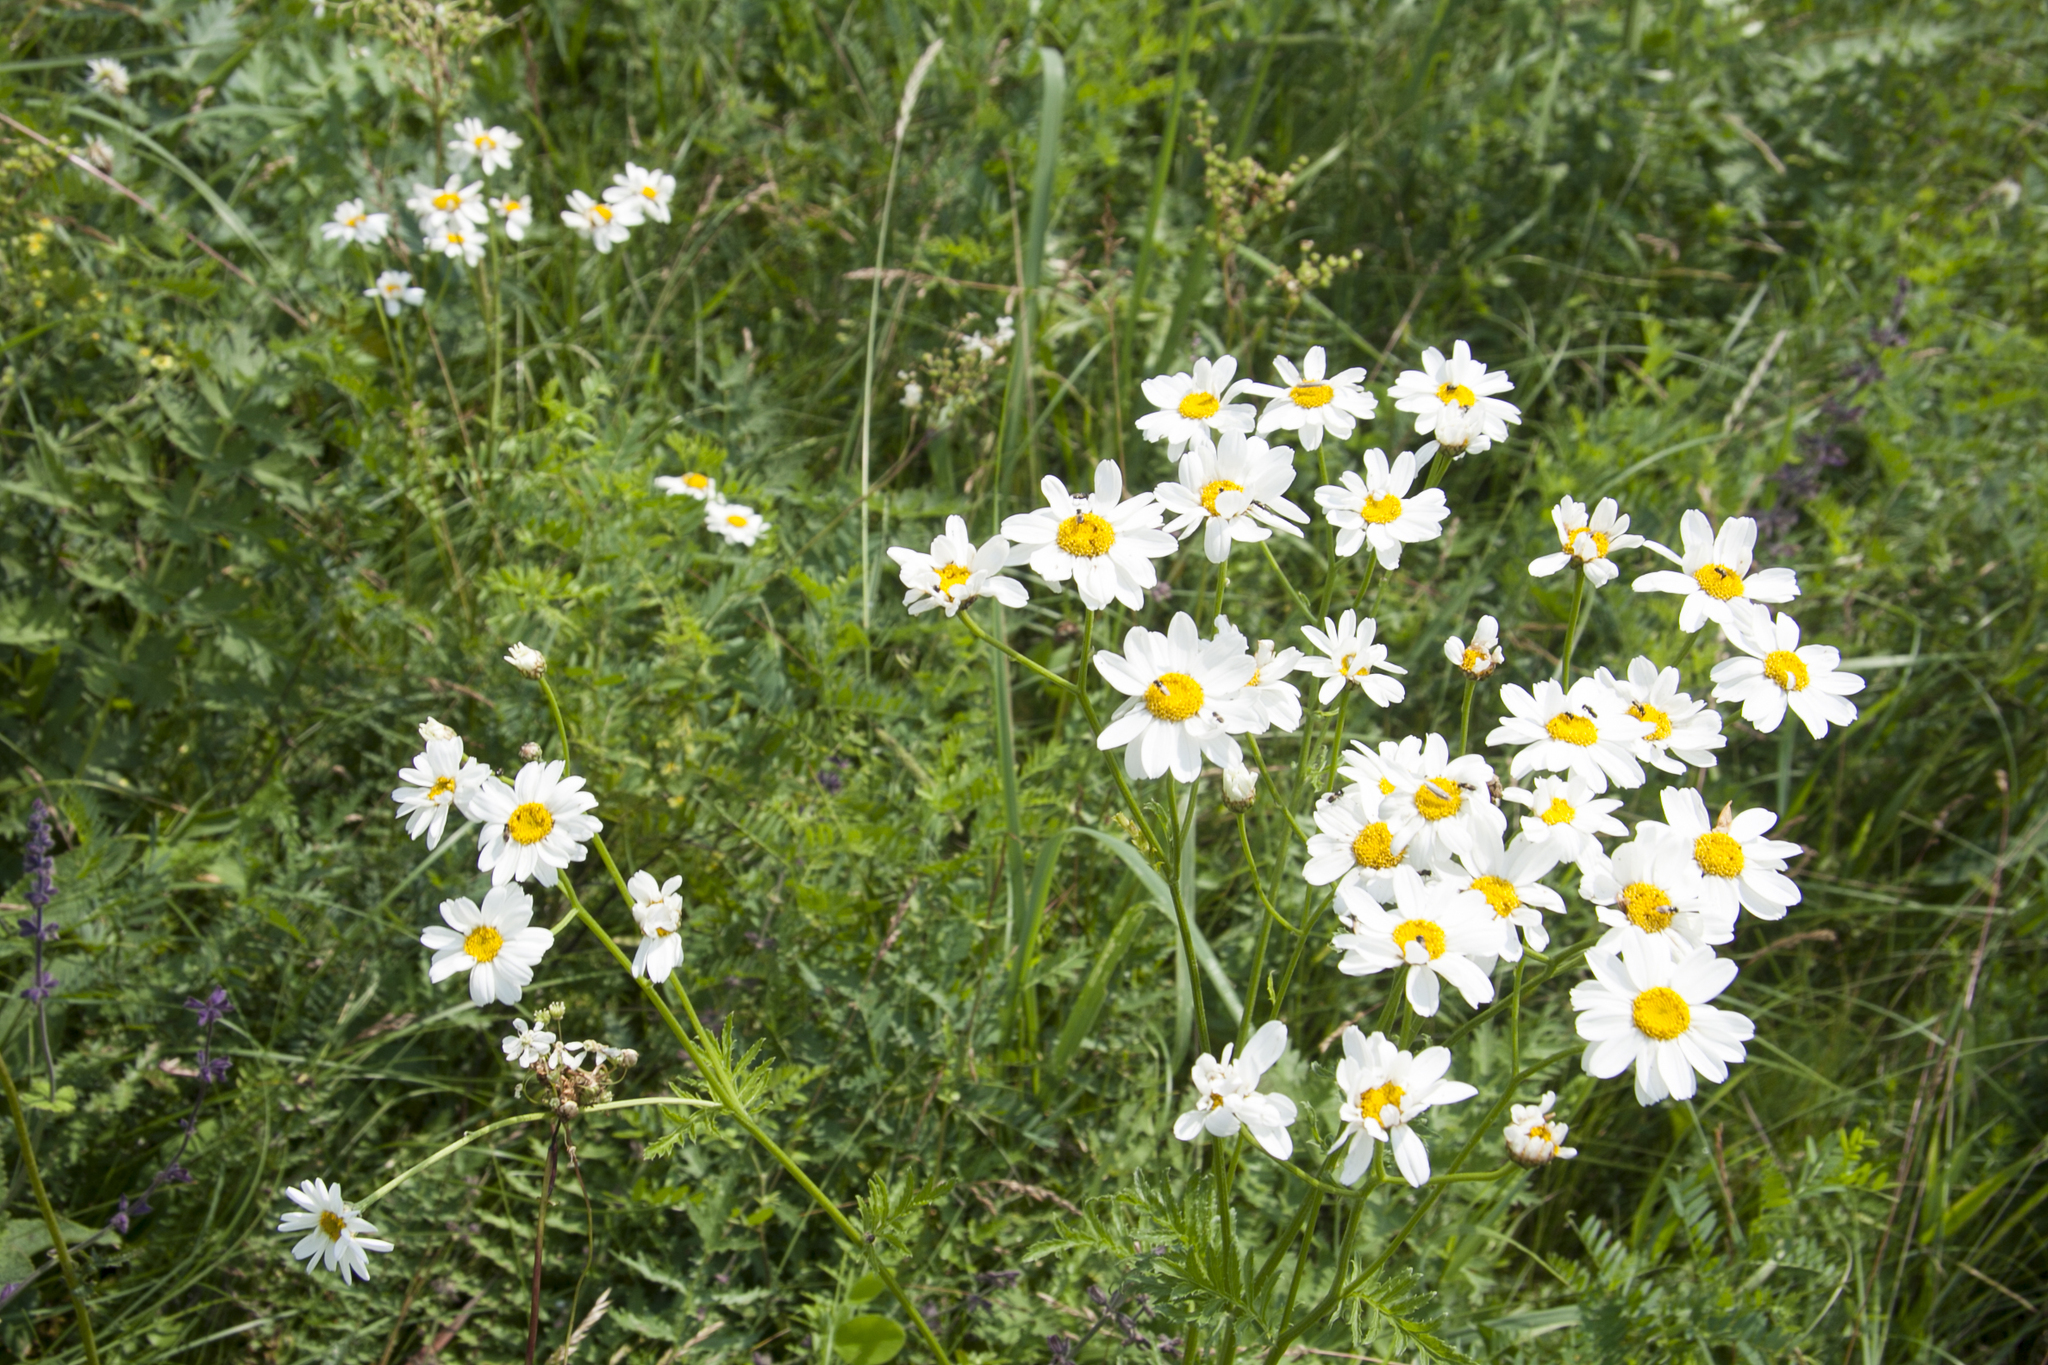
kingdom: Plantae
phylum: Tracheophyta
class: Magnoliopsida
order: Asterales
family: Asteraceae
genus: Tanacetum
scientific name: Tanacetum corymbosum
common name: Scentless feverfew
